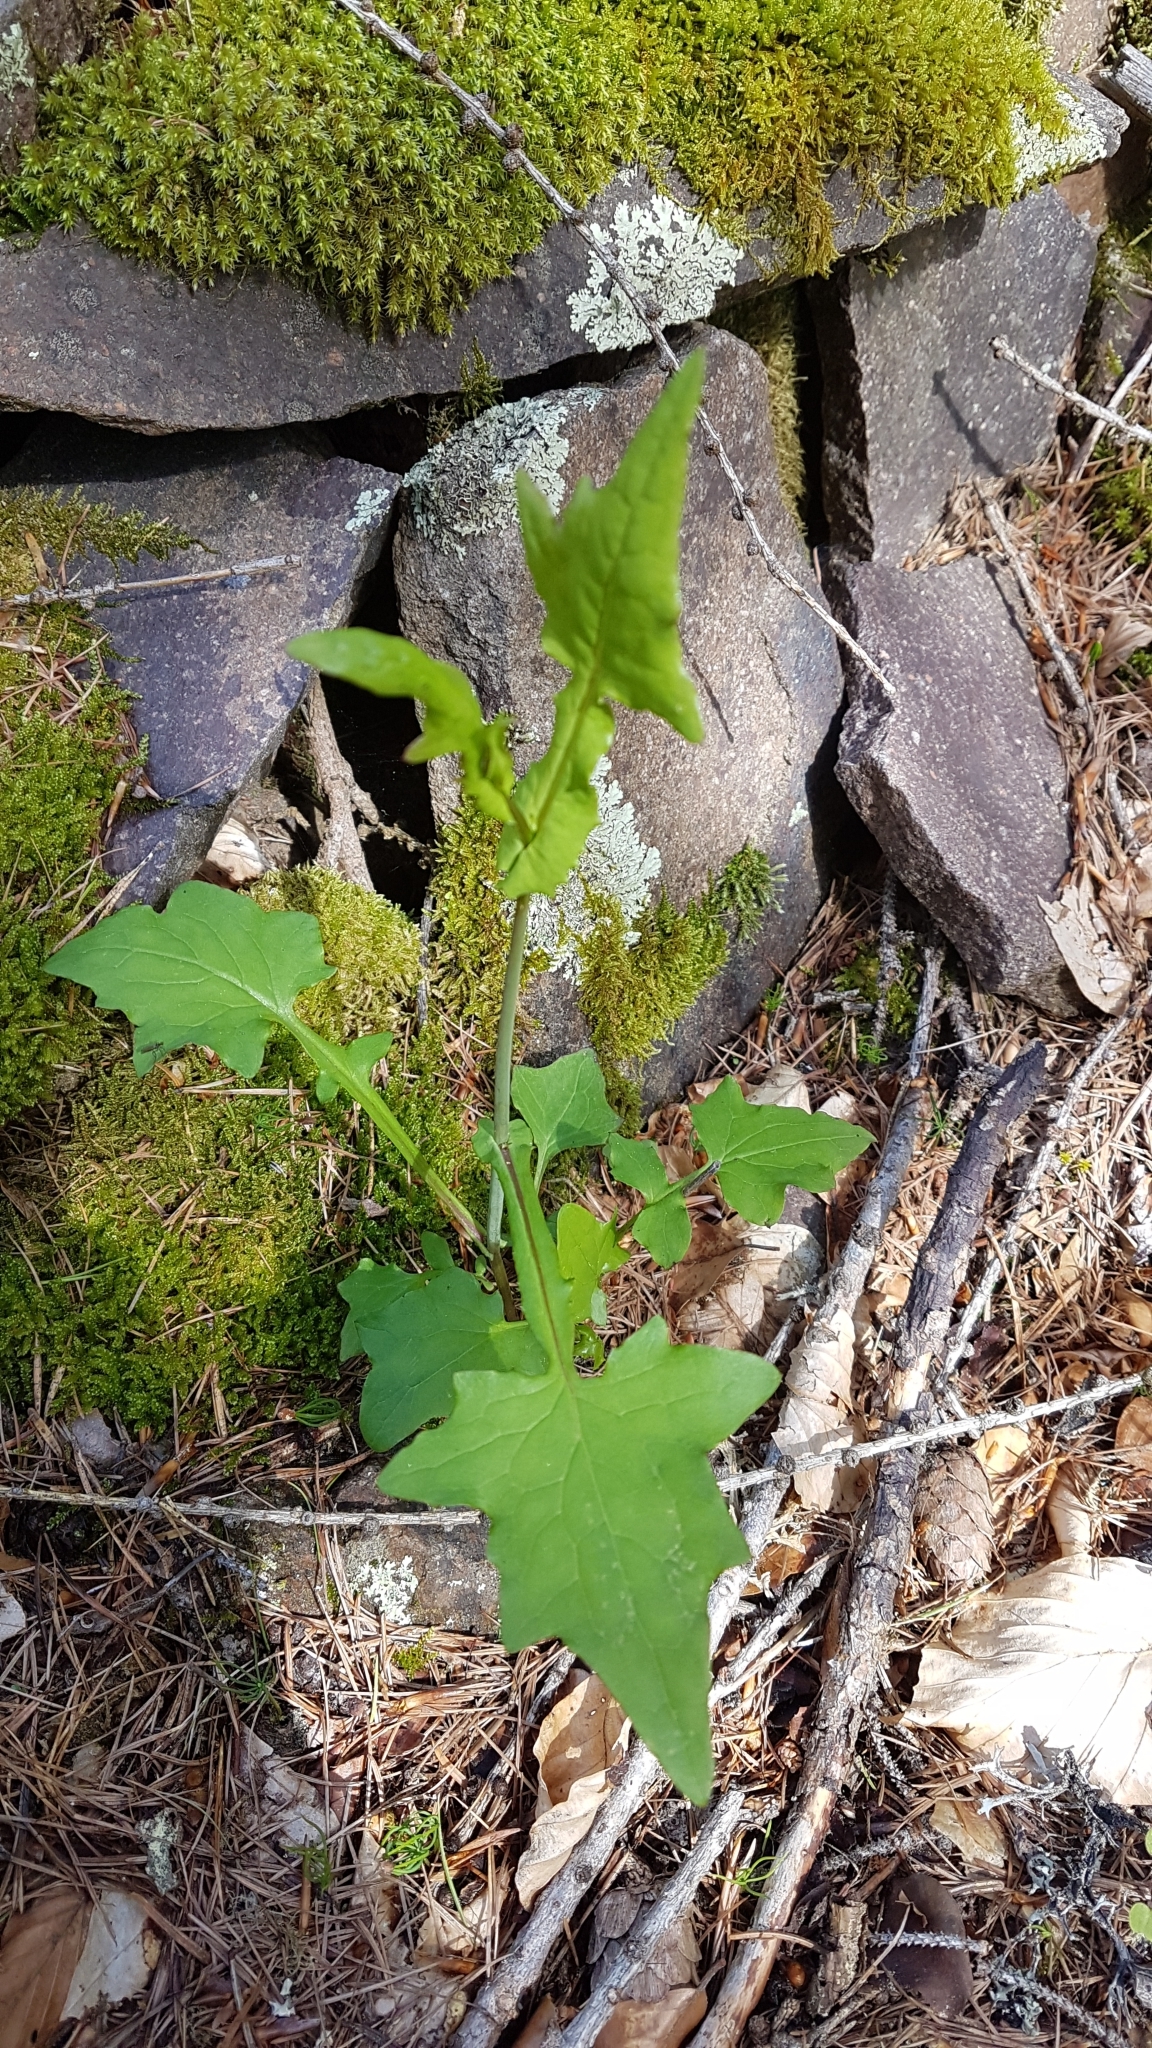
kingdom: Plantae
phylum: Tracheophyta
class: Magnoliopsida
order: Asterales
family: Asteraceae
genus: Mycelis
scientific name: Mycelis muralis
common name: Wall lettuce
